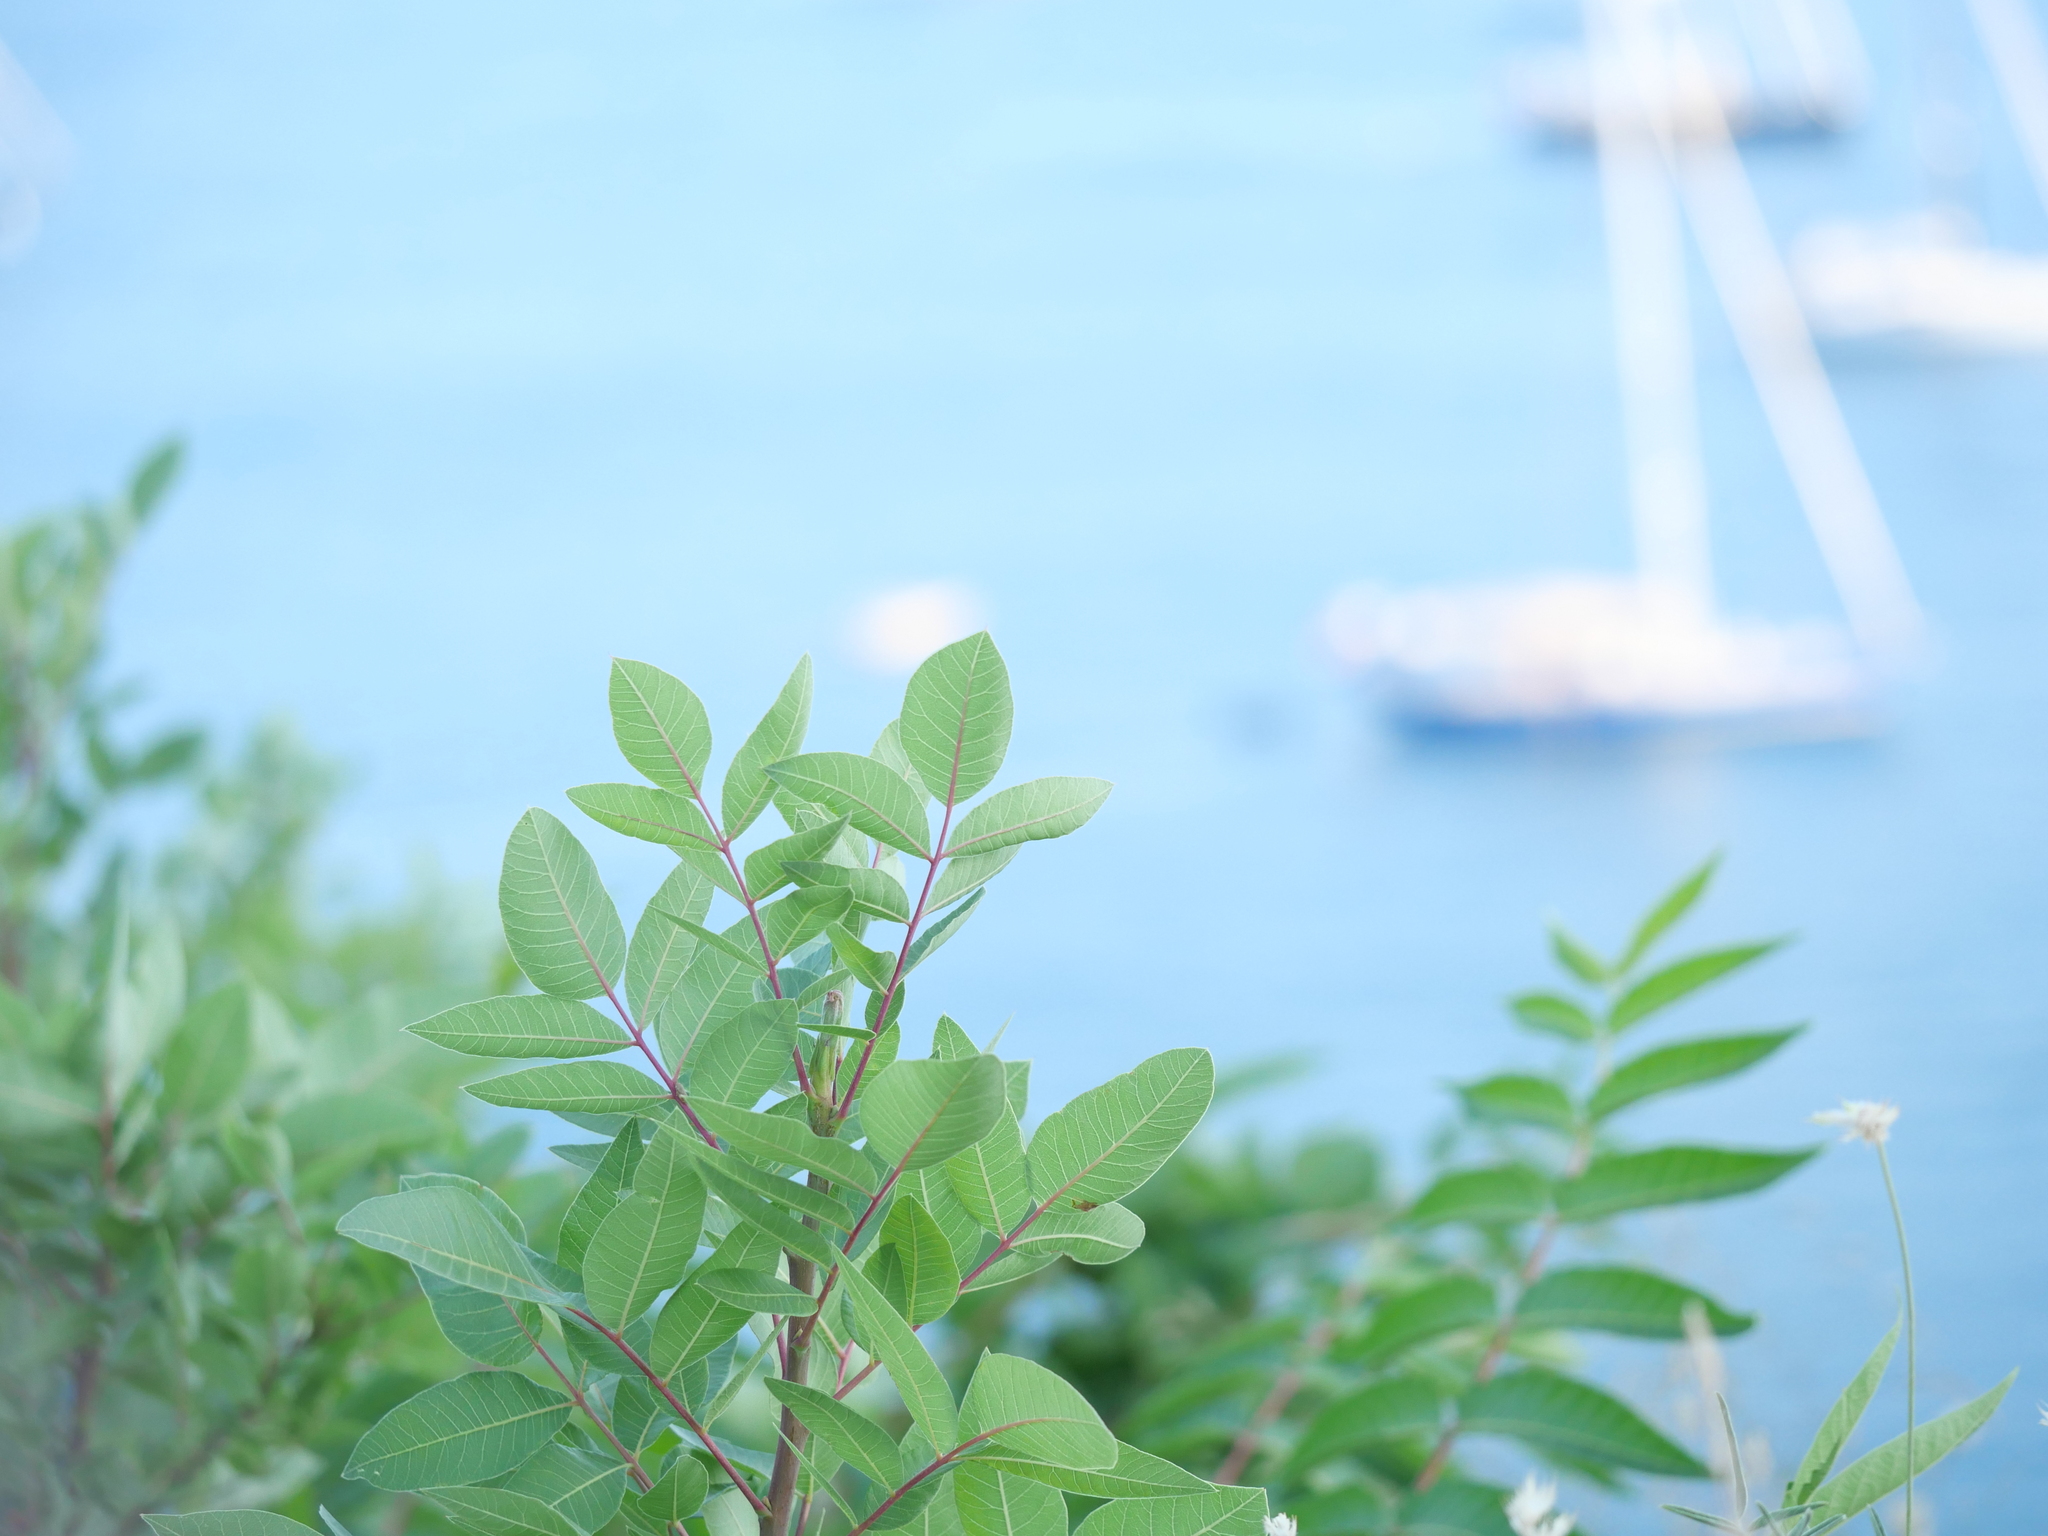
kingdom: Plantae
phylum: Tracheophyta
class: Magnoliopsida
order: Sapindales
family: Anacardiaceae
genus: Pistacia
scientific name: Pistacia terebinthus
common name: Terebinth
